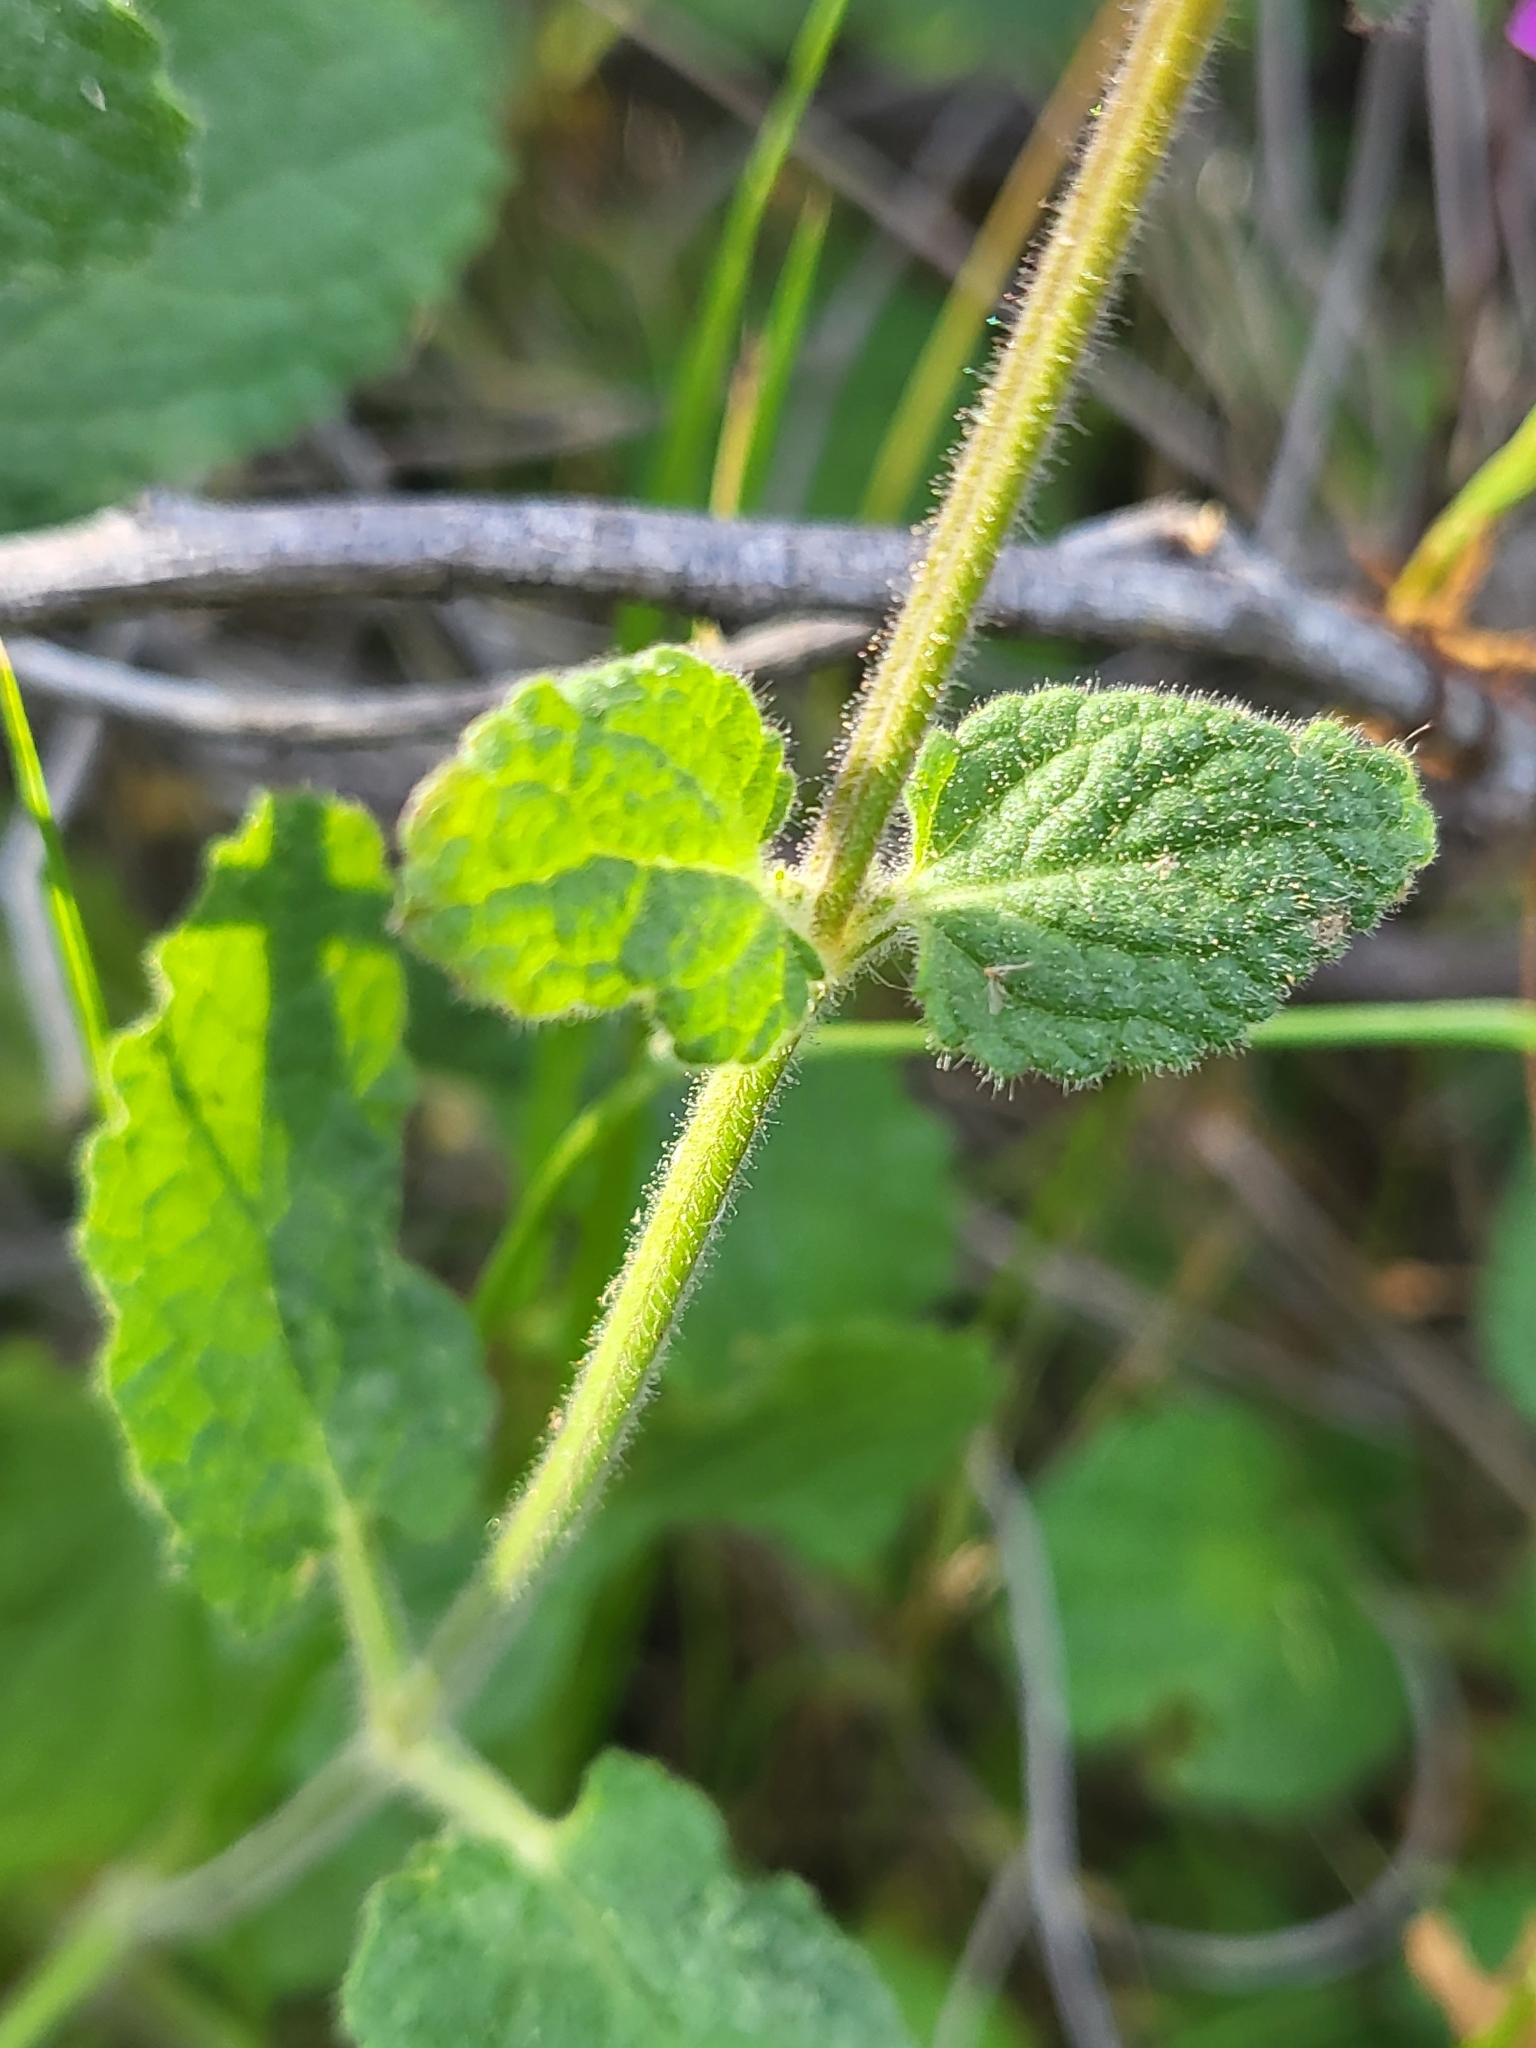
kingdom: Plantae
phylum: Tracheophyta
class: Magnoliopsida
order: Lamiales
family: Lamiaceae
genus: Stachys
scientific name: Stachys bullata
